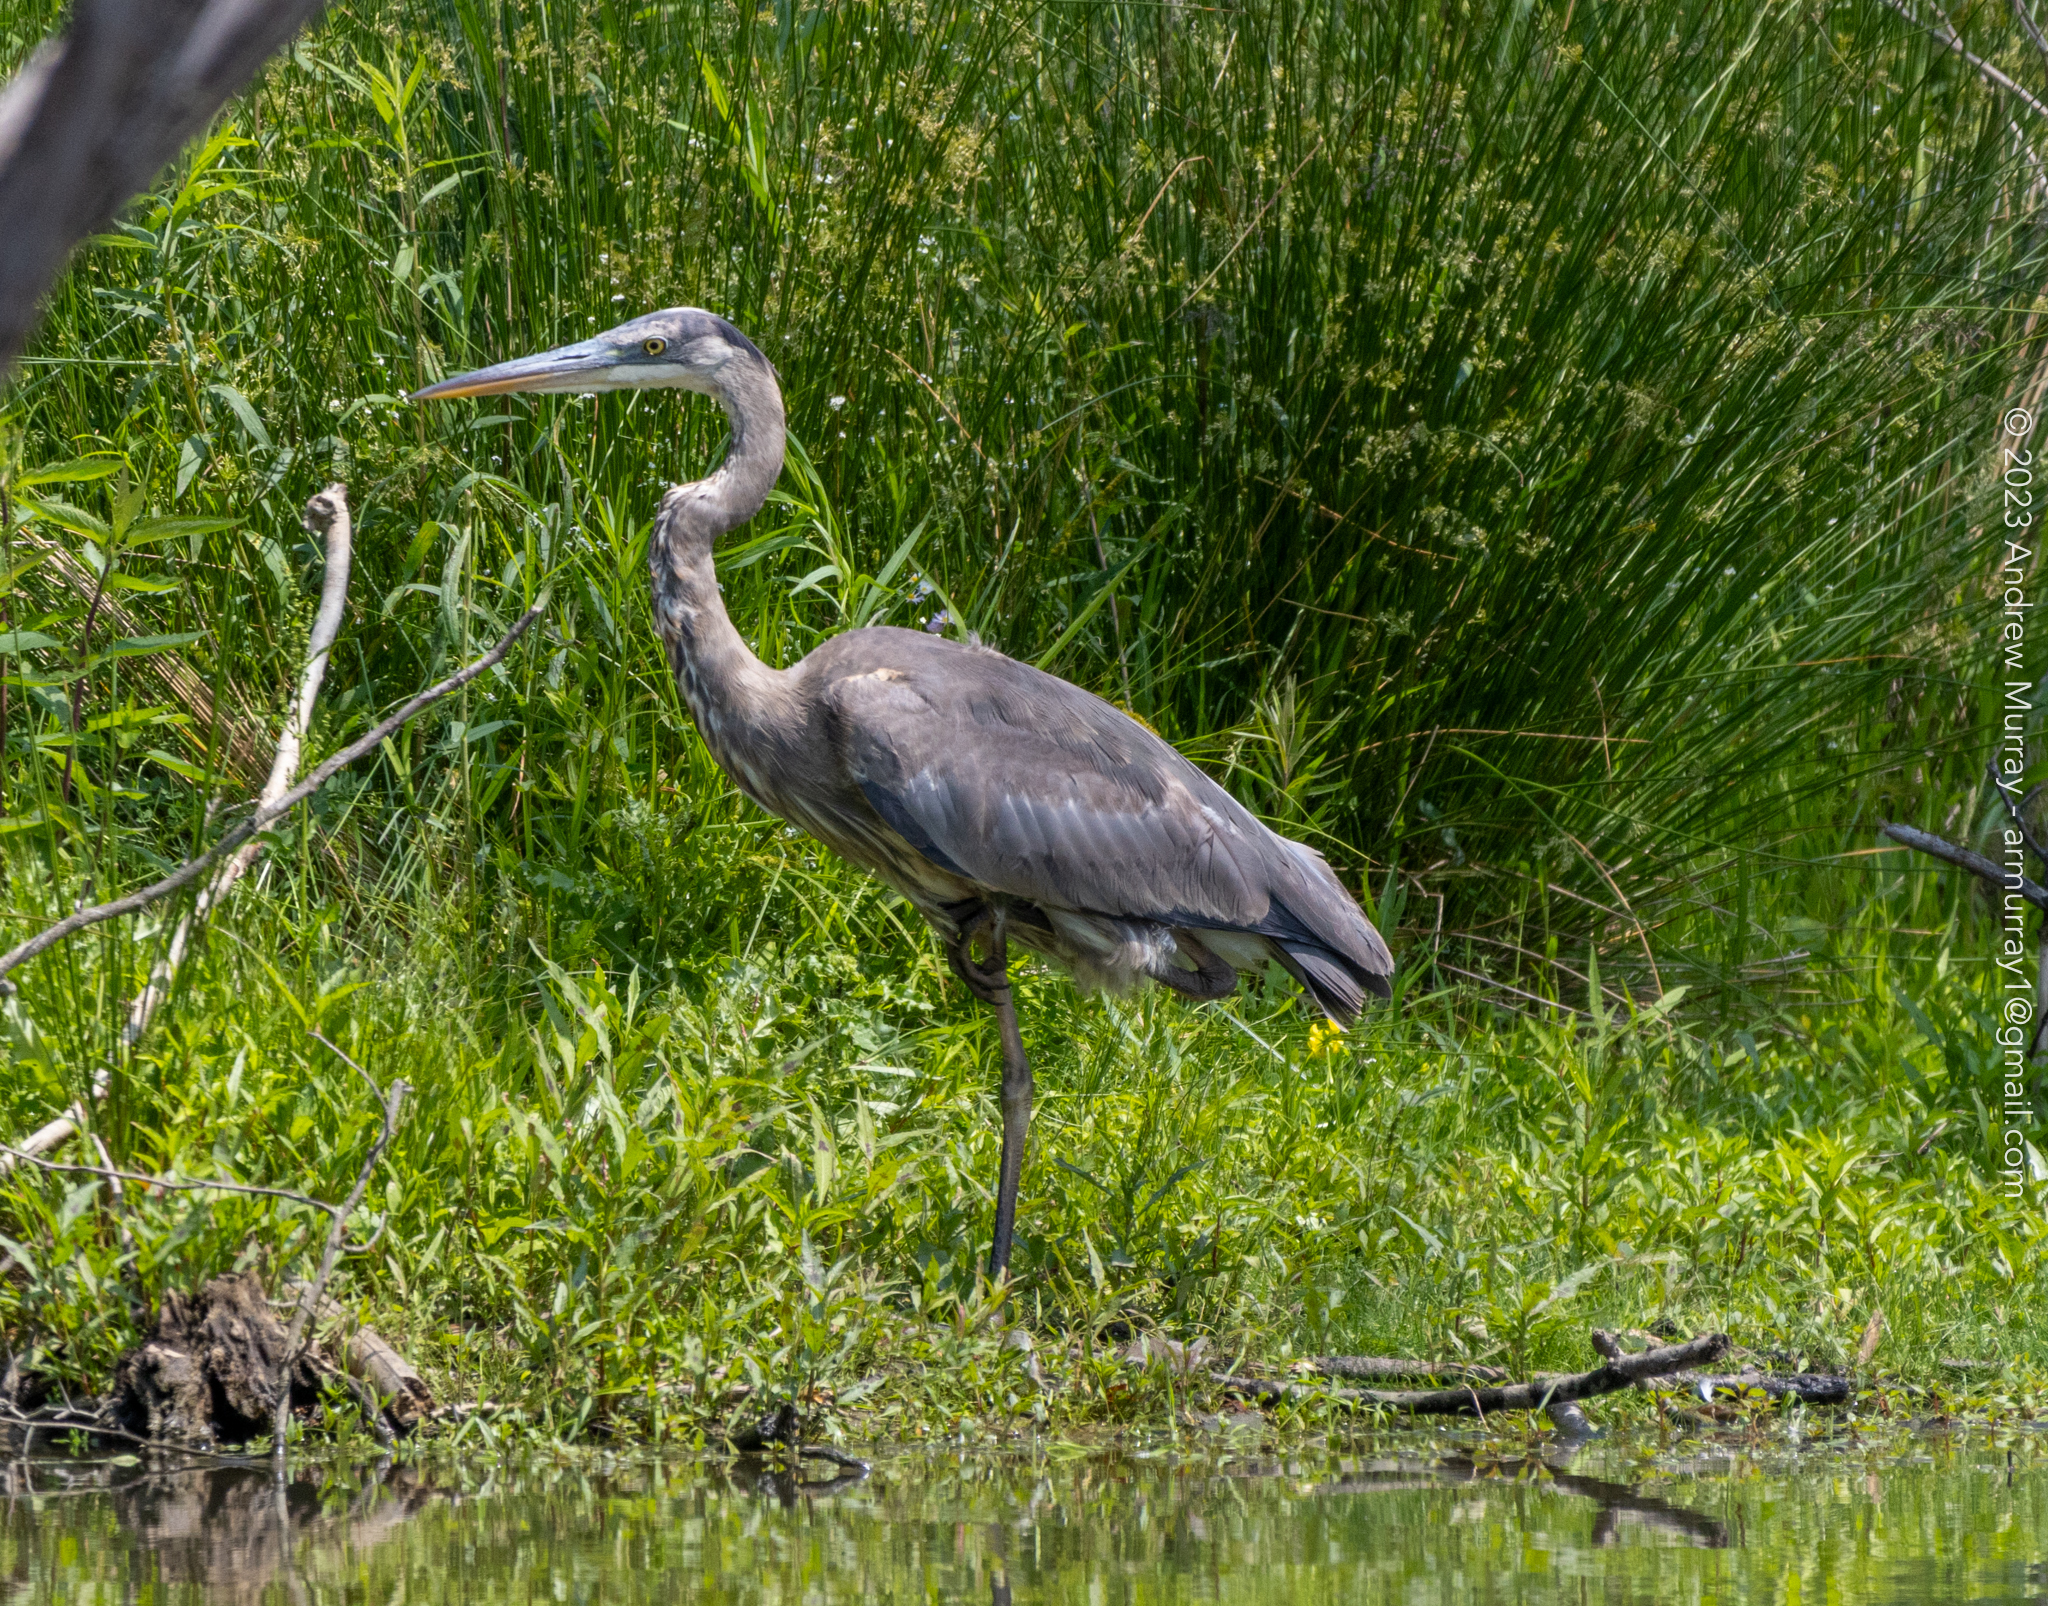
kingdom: Animalia
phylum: Chordata
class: Aves
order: Pelecaniformes
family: Ardeidae
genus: Ardea
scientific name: Ardea herodias
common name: Great blue heron
